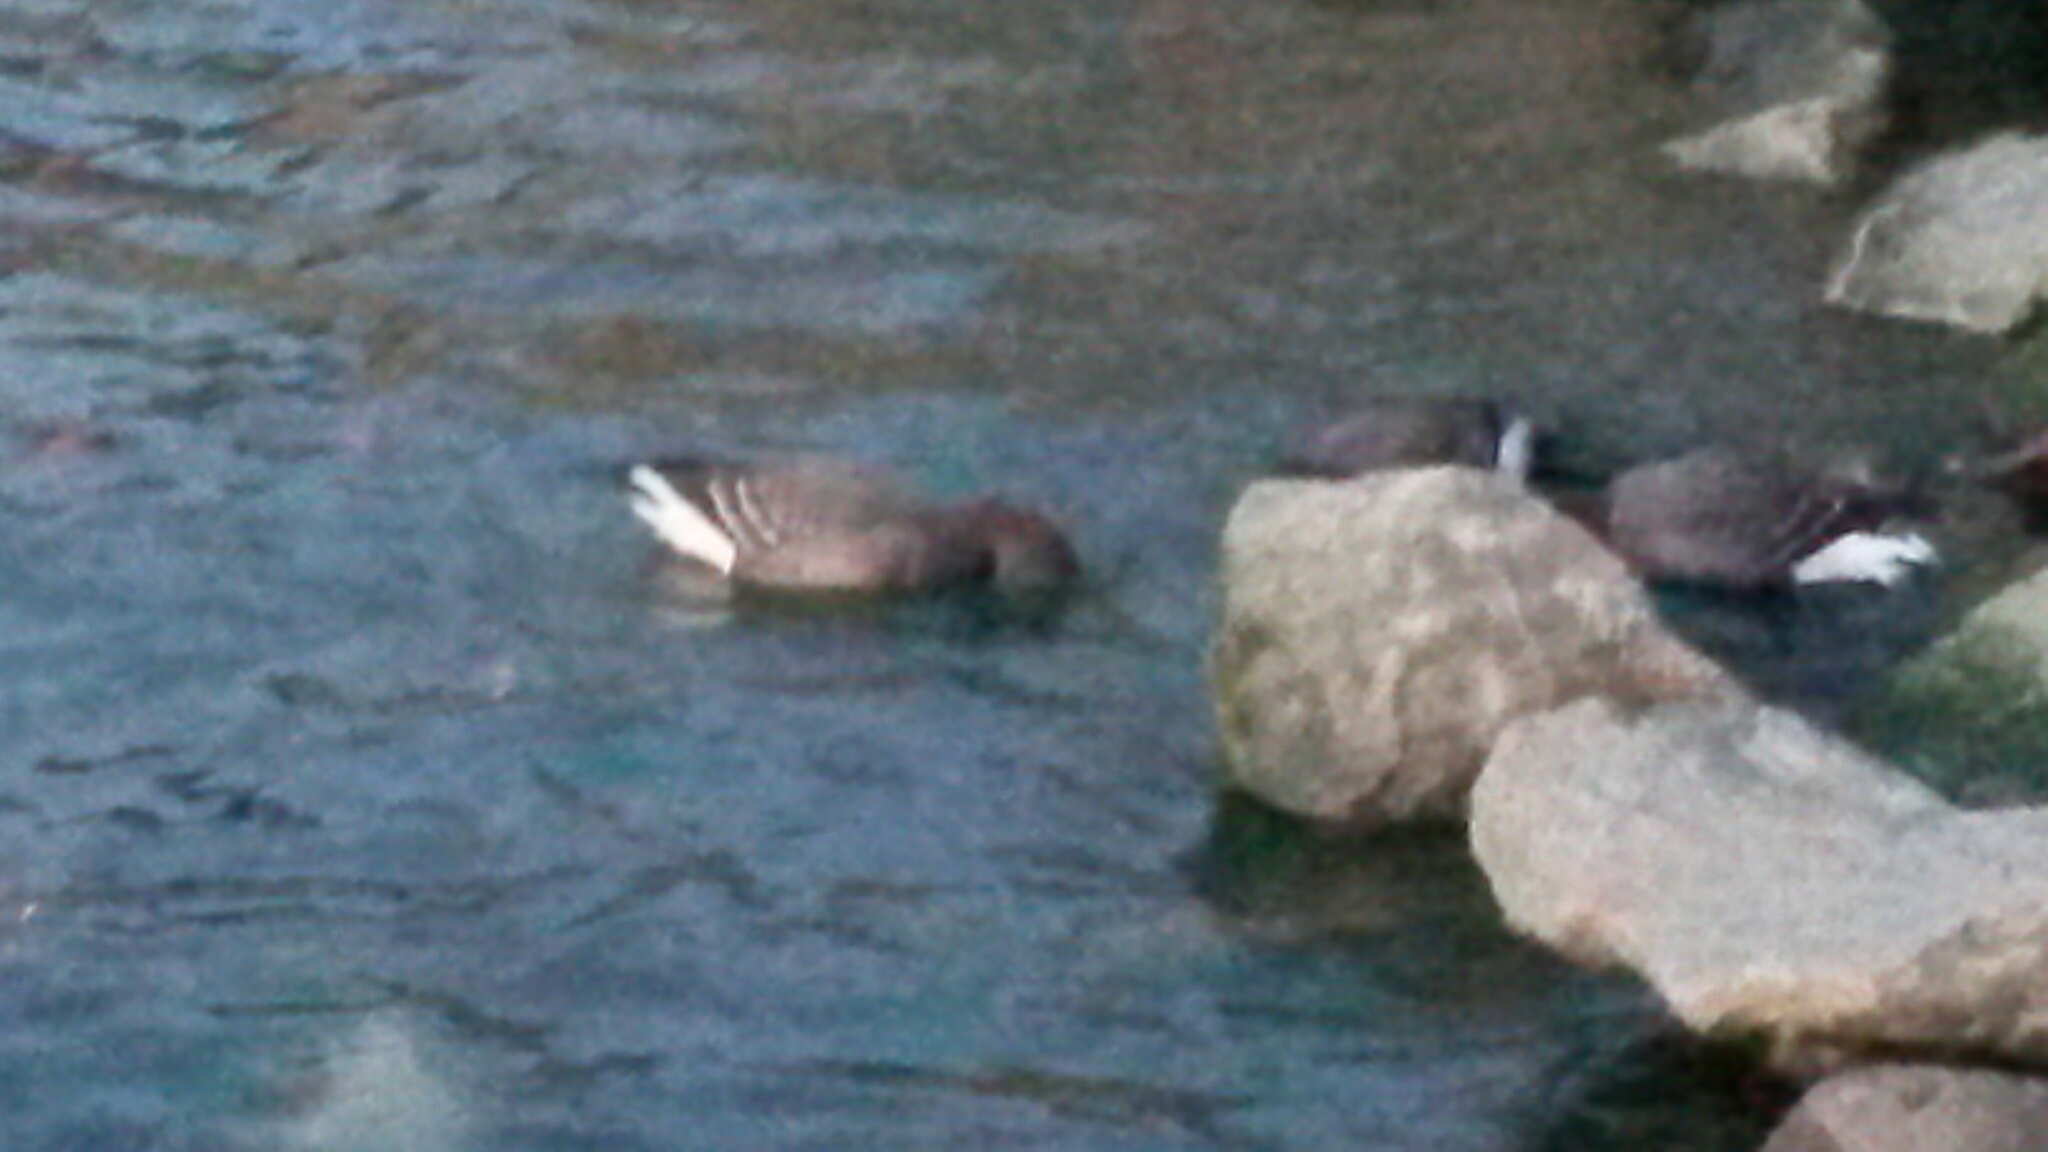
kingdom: Animalia
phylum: Chordata
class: Aves
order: Anseriformes
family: Anatidae
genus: Branta
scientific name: Branta bernicla
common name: Brant goose
